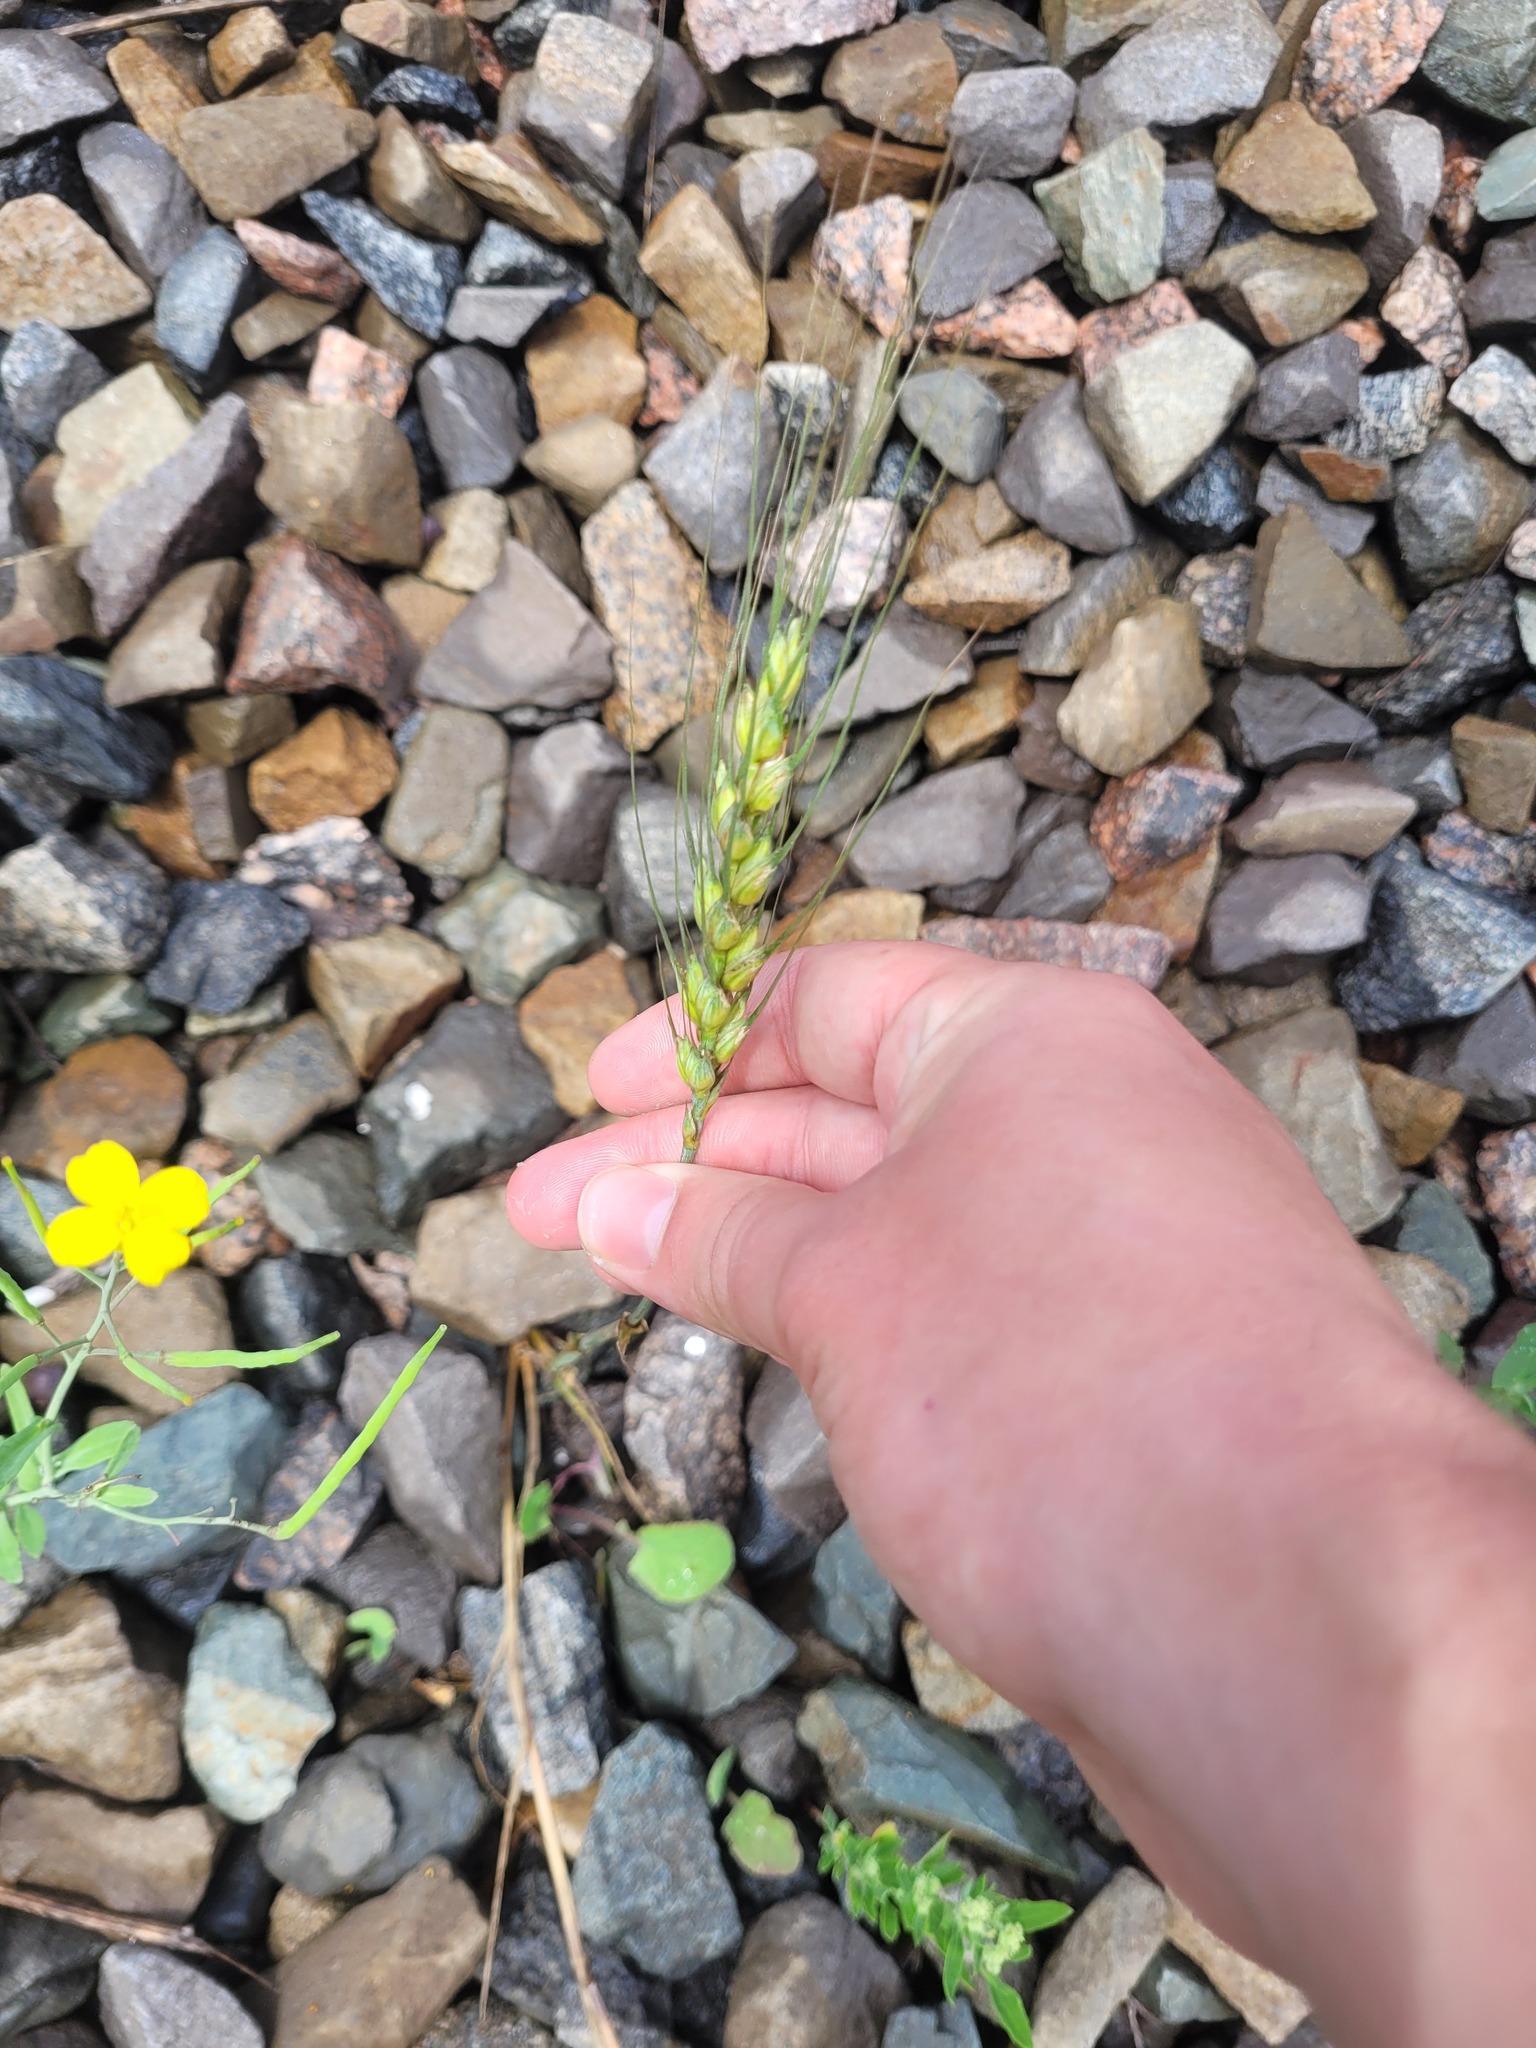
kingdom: Plantae
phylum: Tracheophyta
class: Liliopsida
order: Poales
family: Poaceae
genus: Triticum
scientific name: Triticum aestivum
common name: Common wheat
